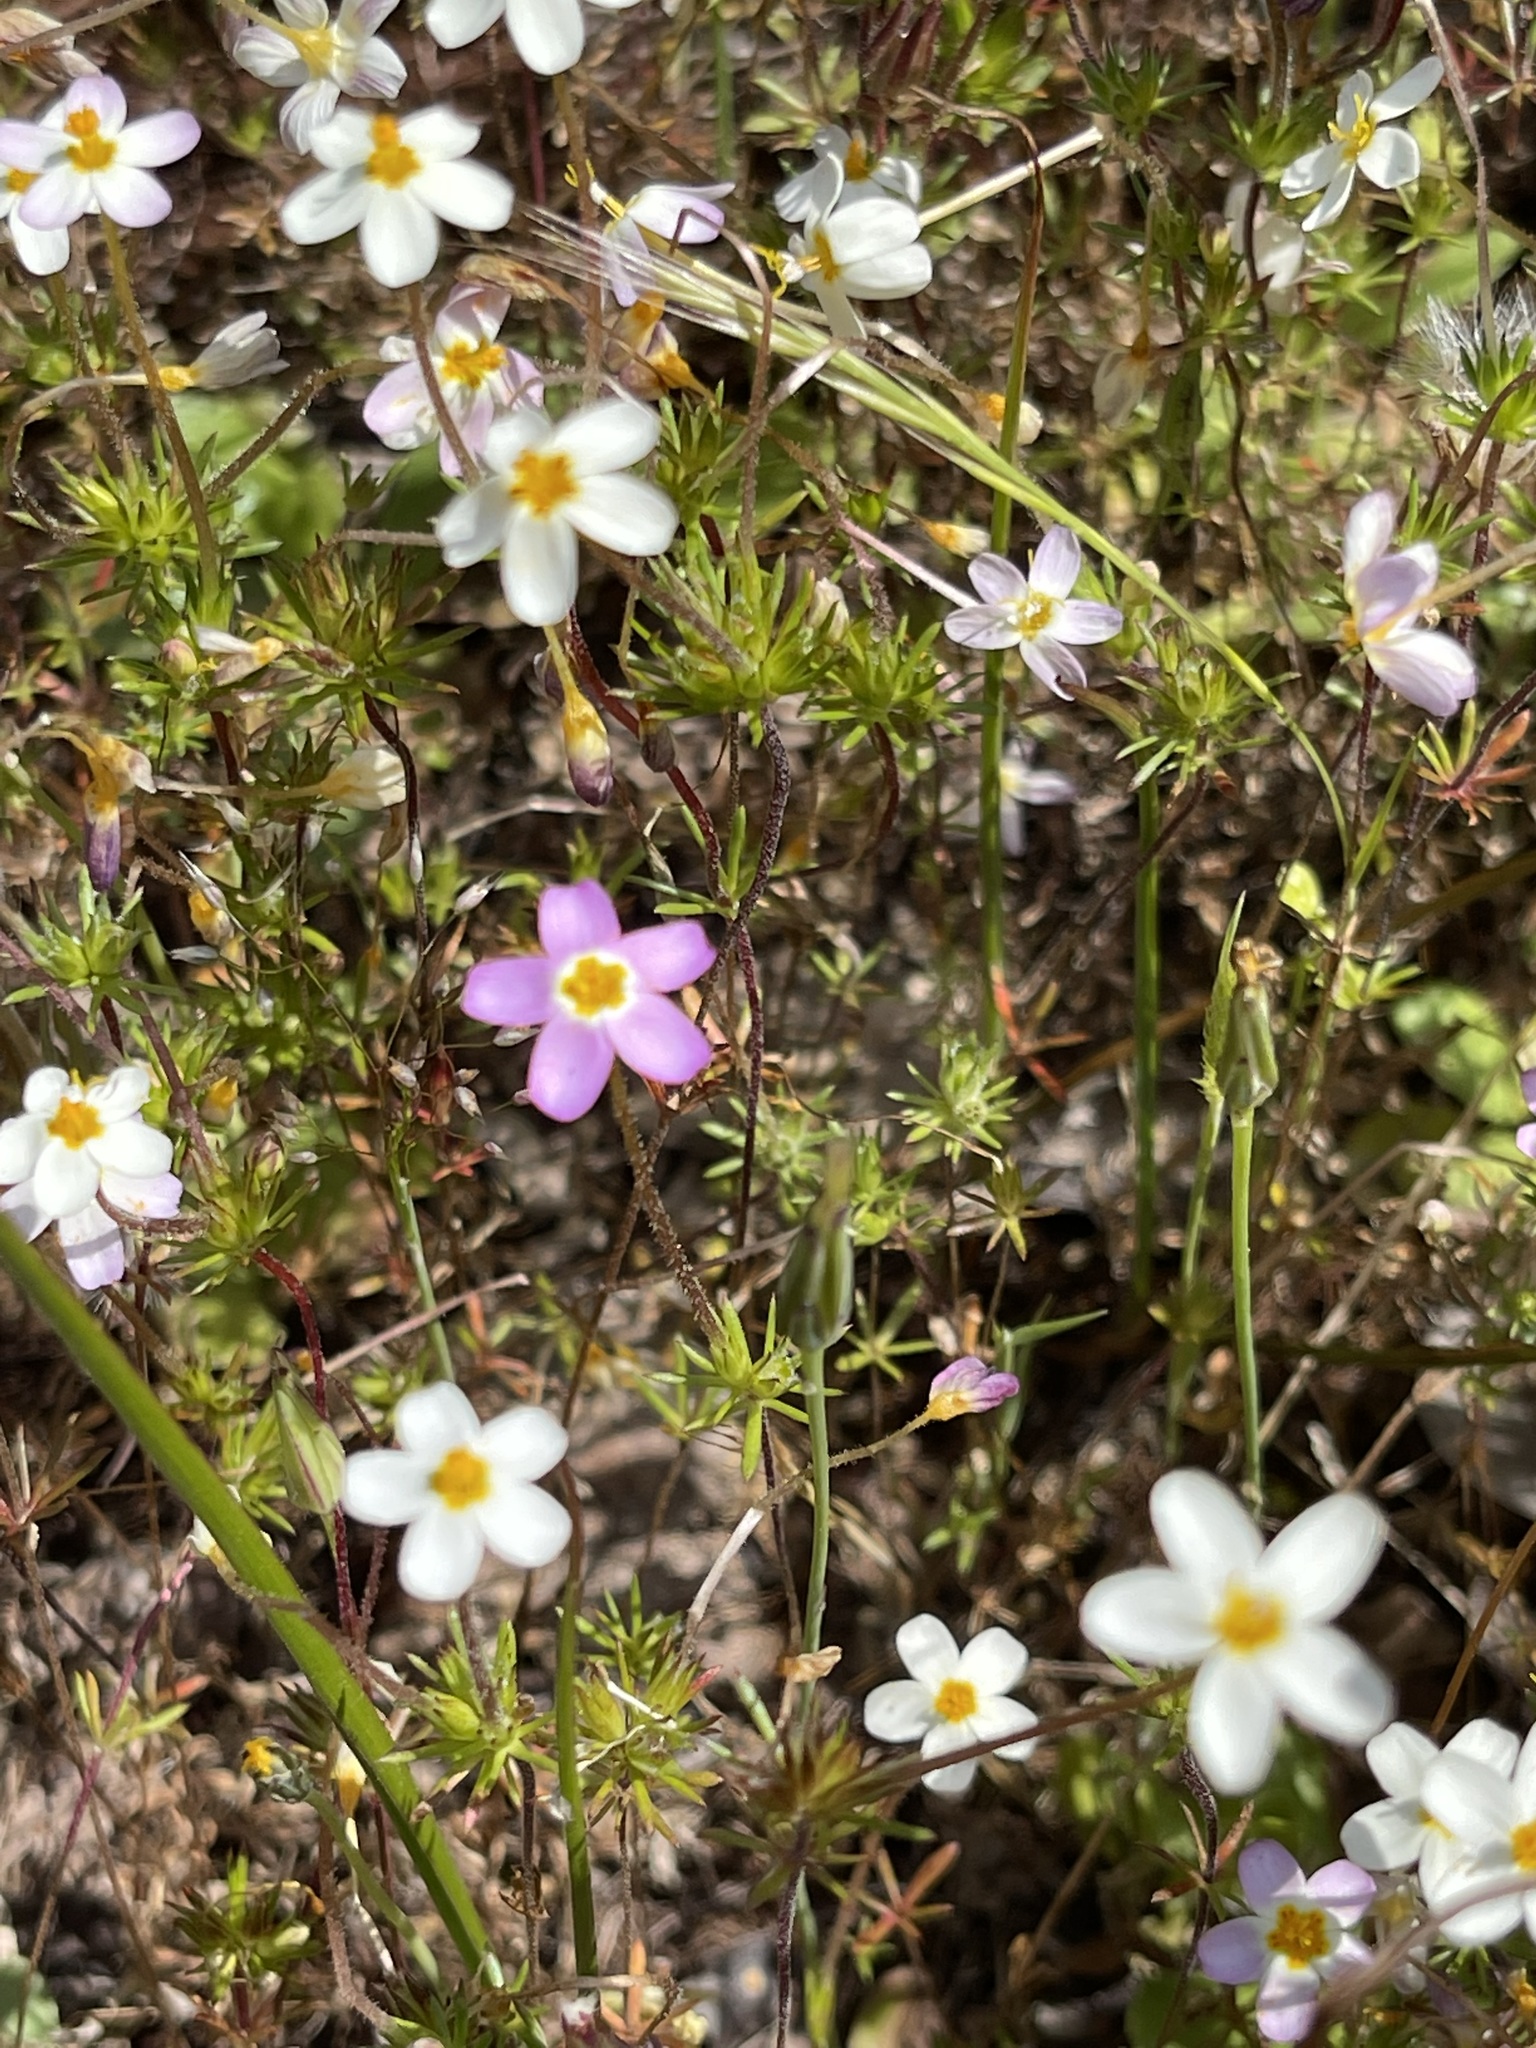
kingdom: Plantae
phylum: Tracheophyta
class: Magnoliopsida
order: Ericales
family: Polemoniaceae
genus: Leptosiphon
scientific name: Leptosiphon parviflorus
